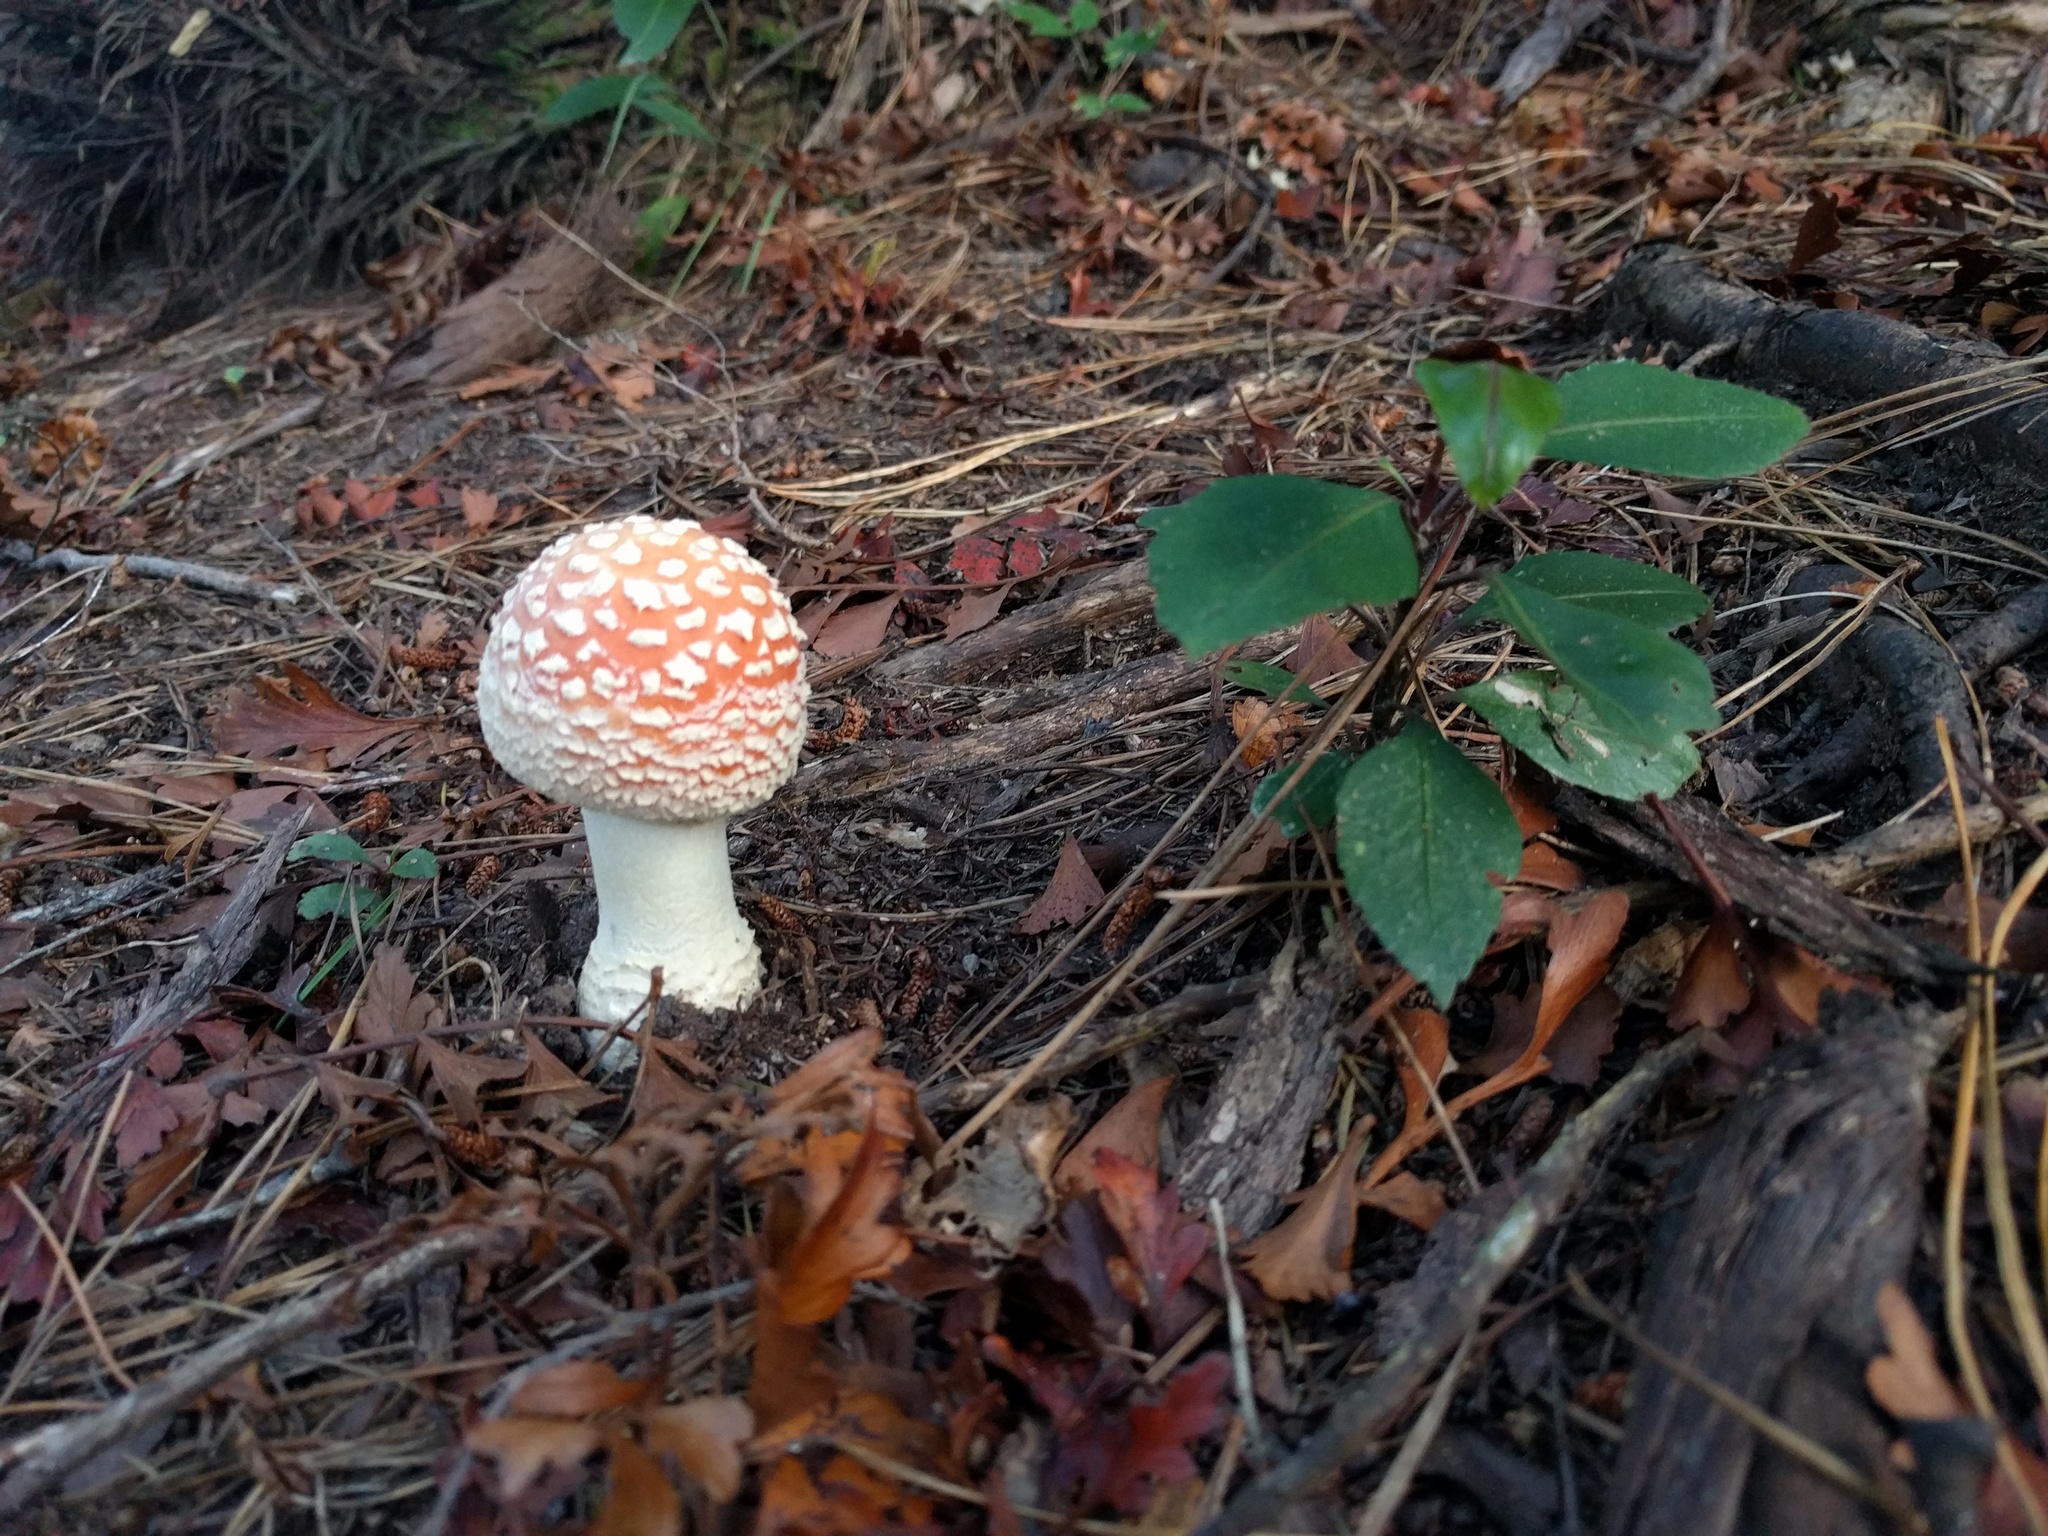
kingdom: Fungi
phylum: Basidiomycota
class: Agaricomycetes
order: Agaricales
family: Amanitaceae
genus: Amanita
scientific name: Amanita muscaria
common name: Fly agaric
